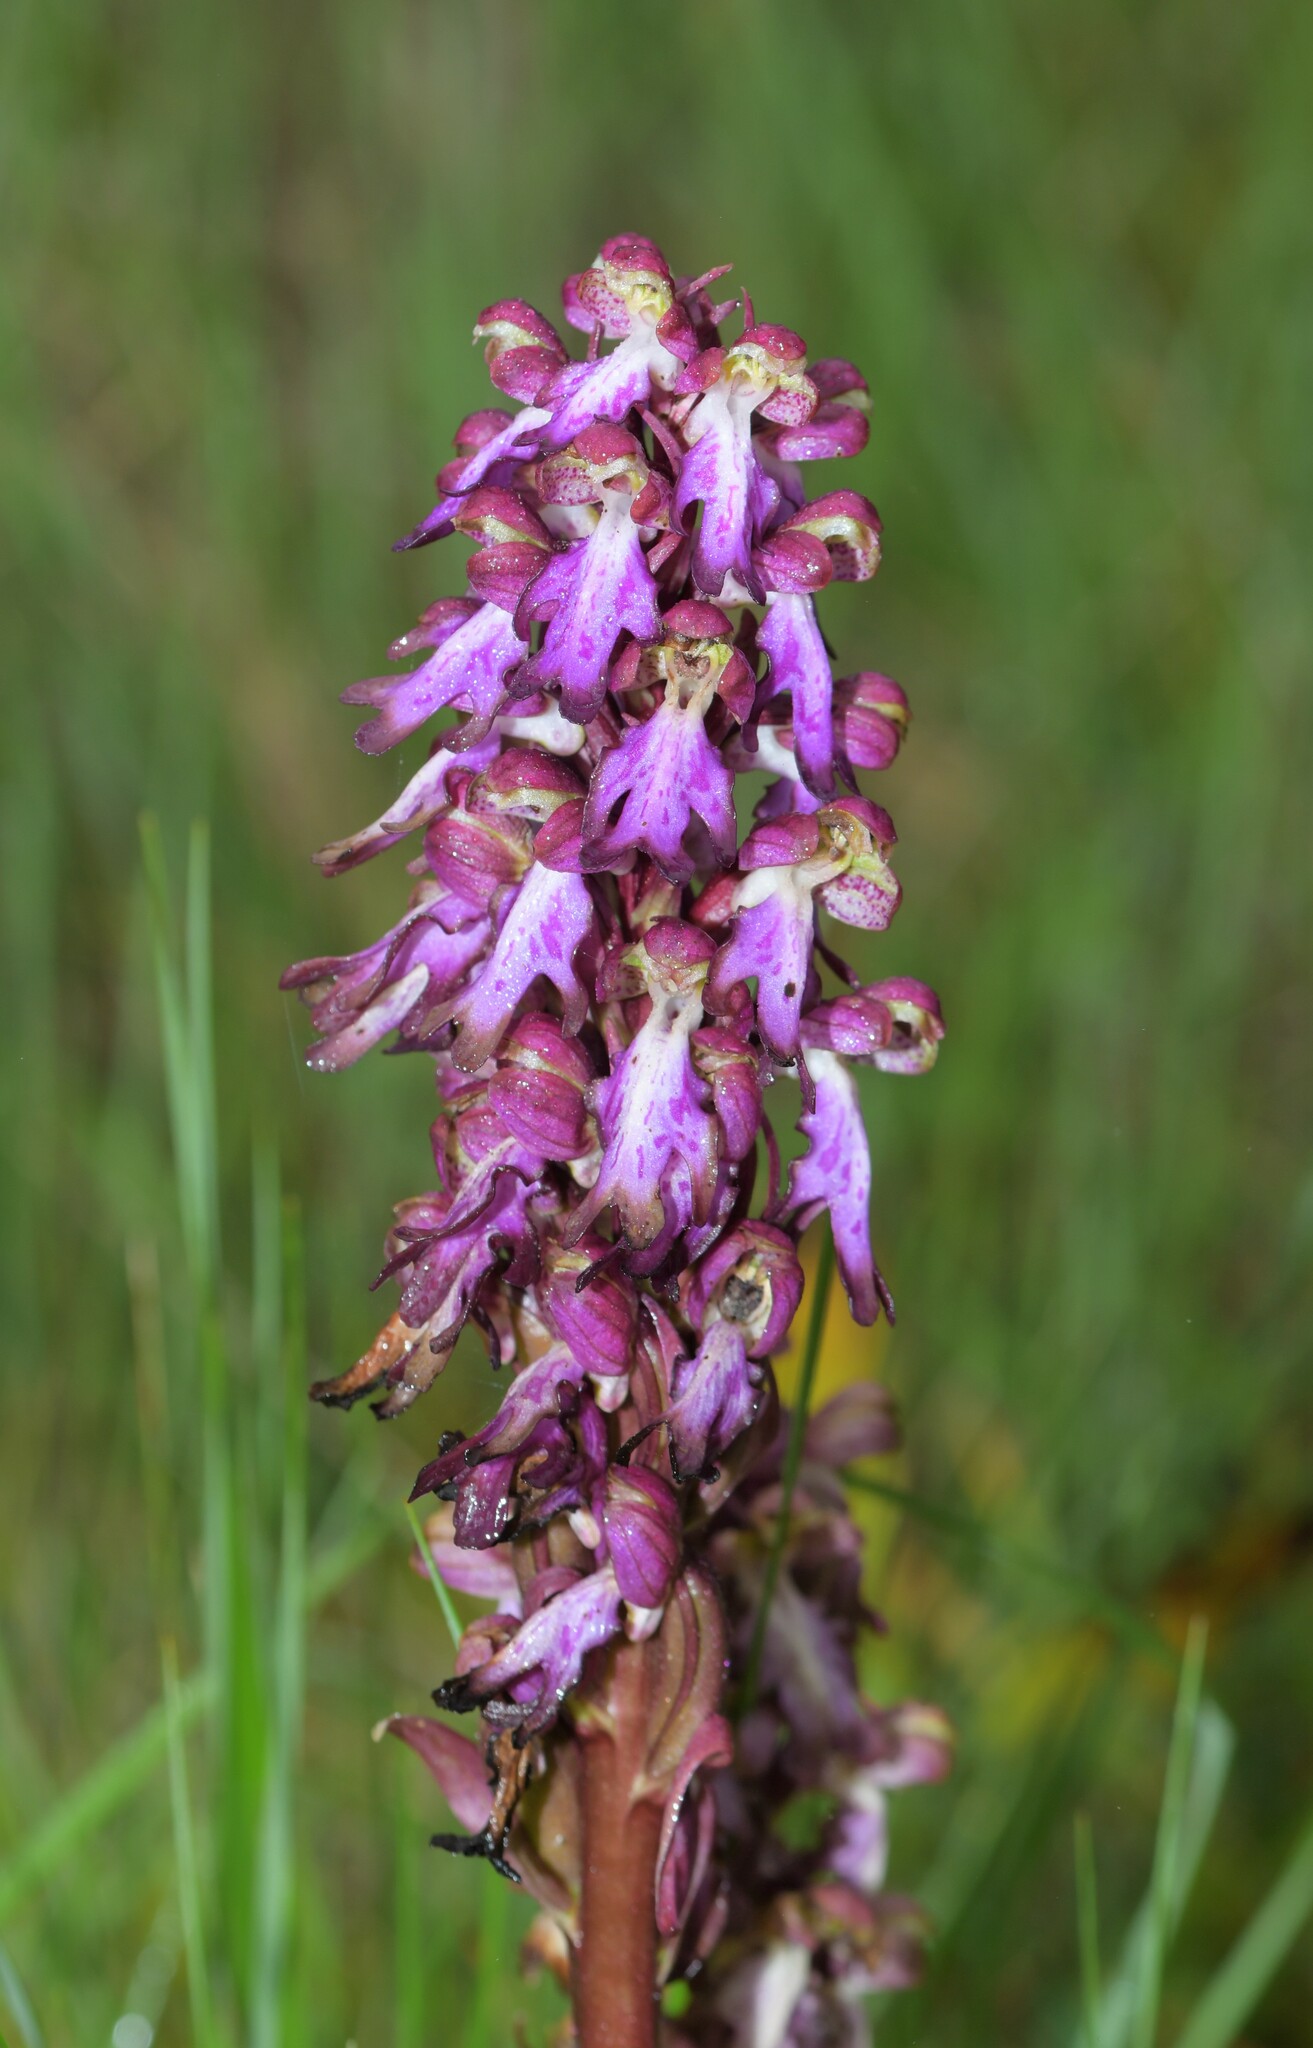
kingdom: Plantae
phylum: Tracheophyta
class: Liliopsida
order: Asparagales
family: Orchidaceae
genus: Himantoglossum
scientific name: Himantoglossum robertianum
